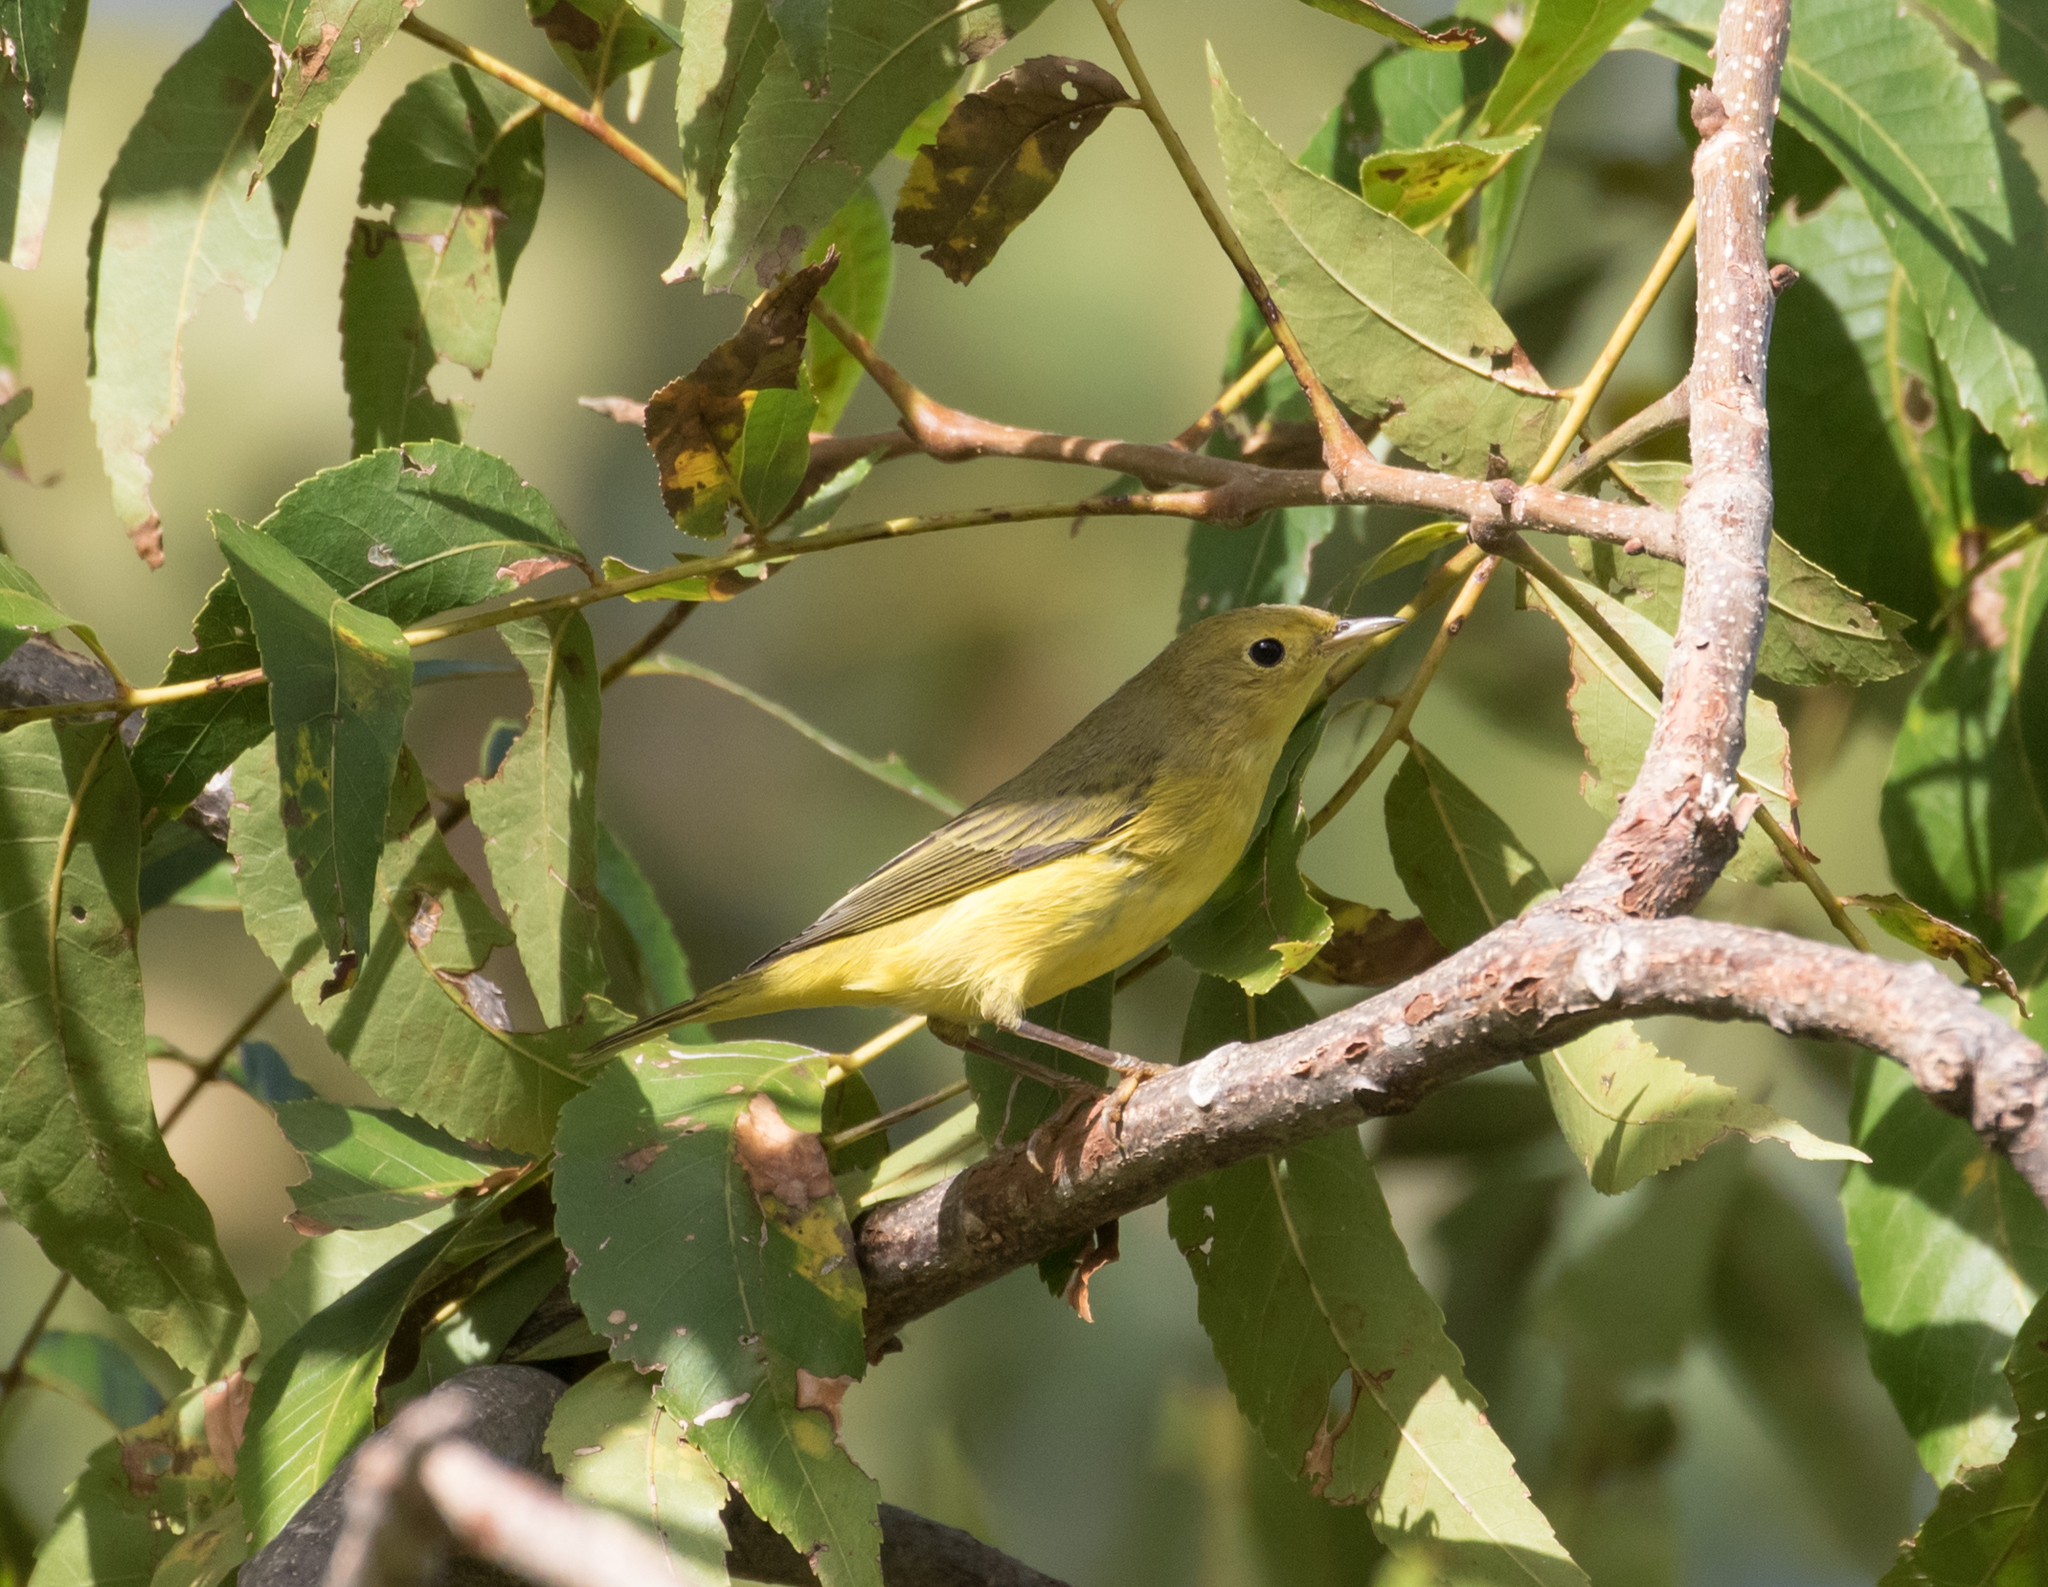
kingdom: Animalia
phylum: Chordata
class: Aves
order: Passeriformes
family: Parulidae
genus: Setophaga
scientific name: Setophaga petechia
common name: Yellow warbler
